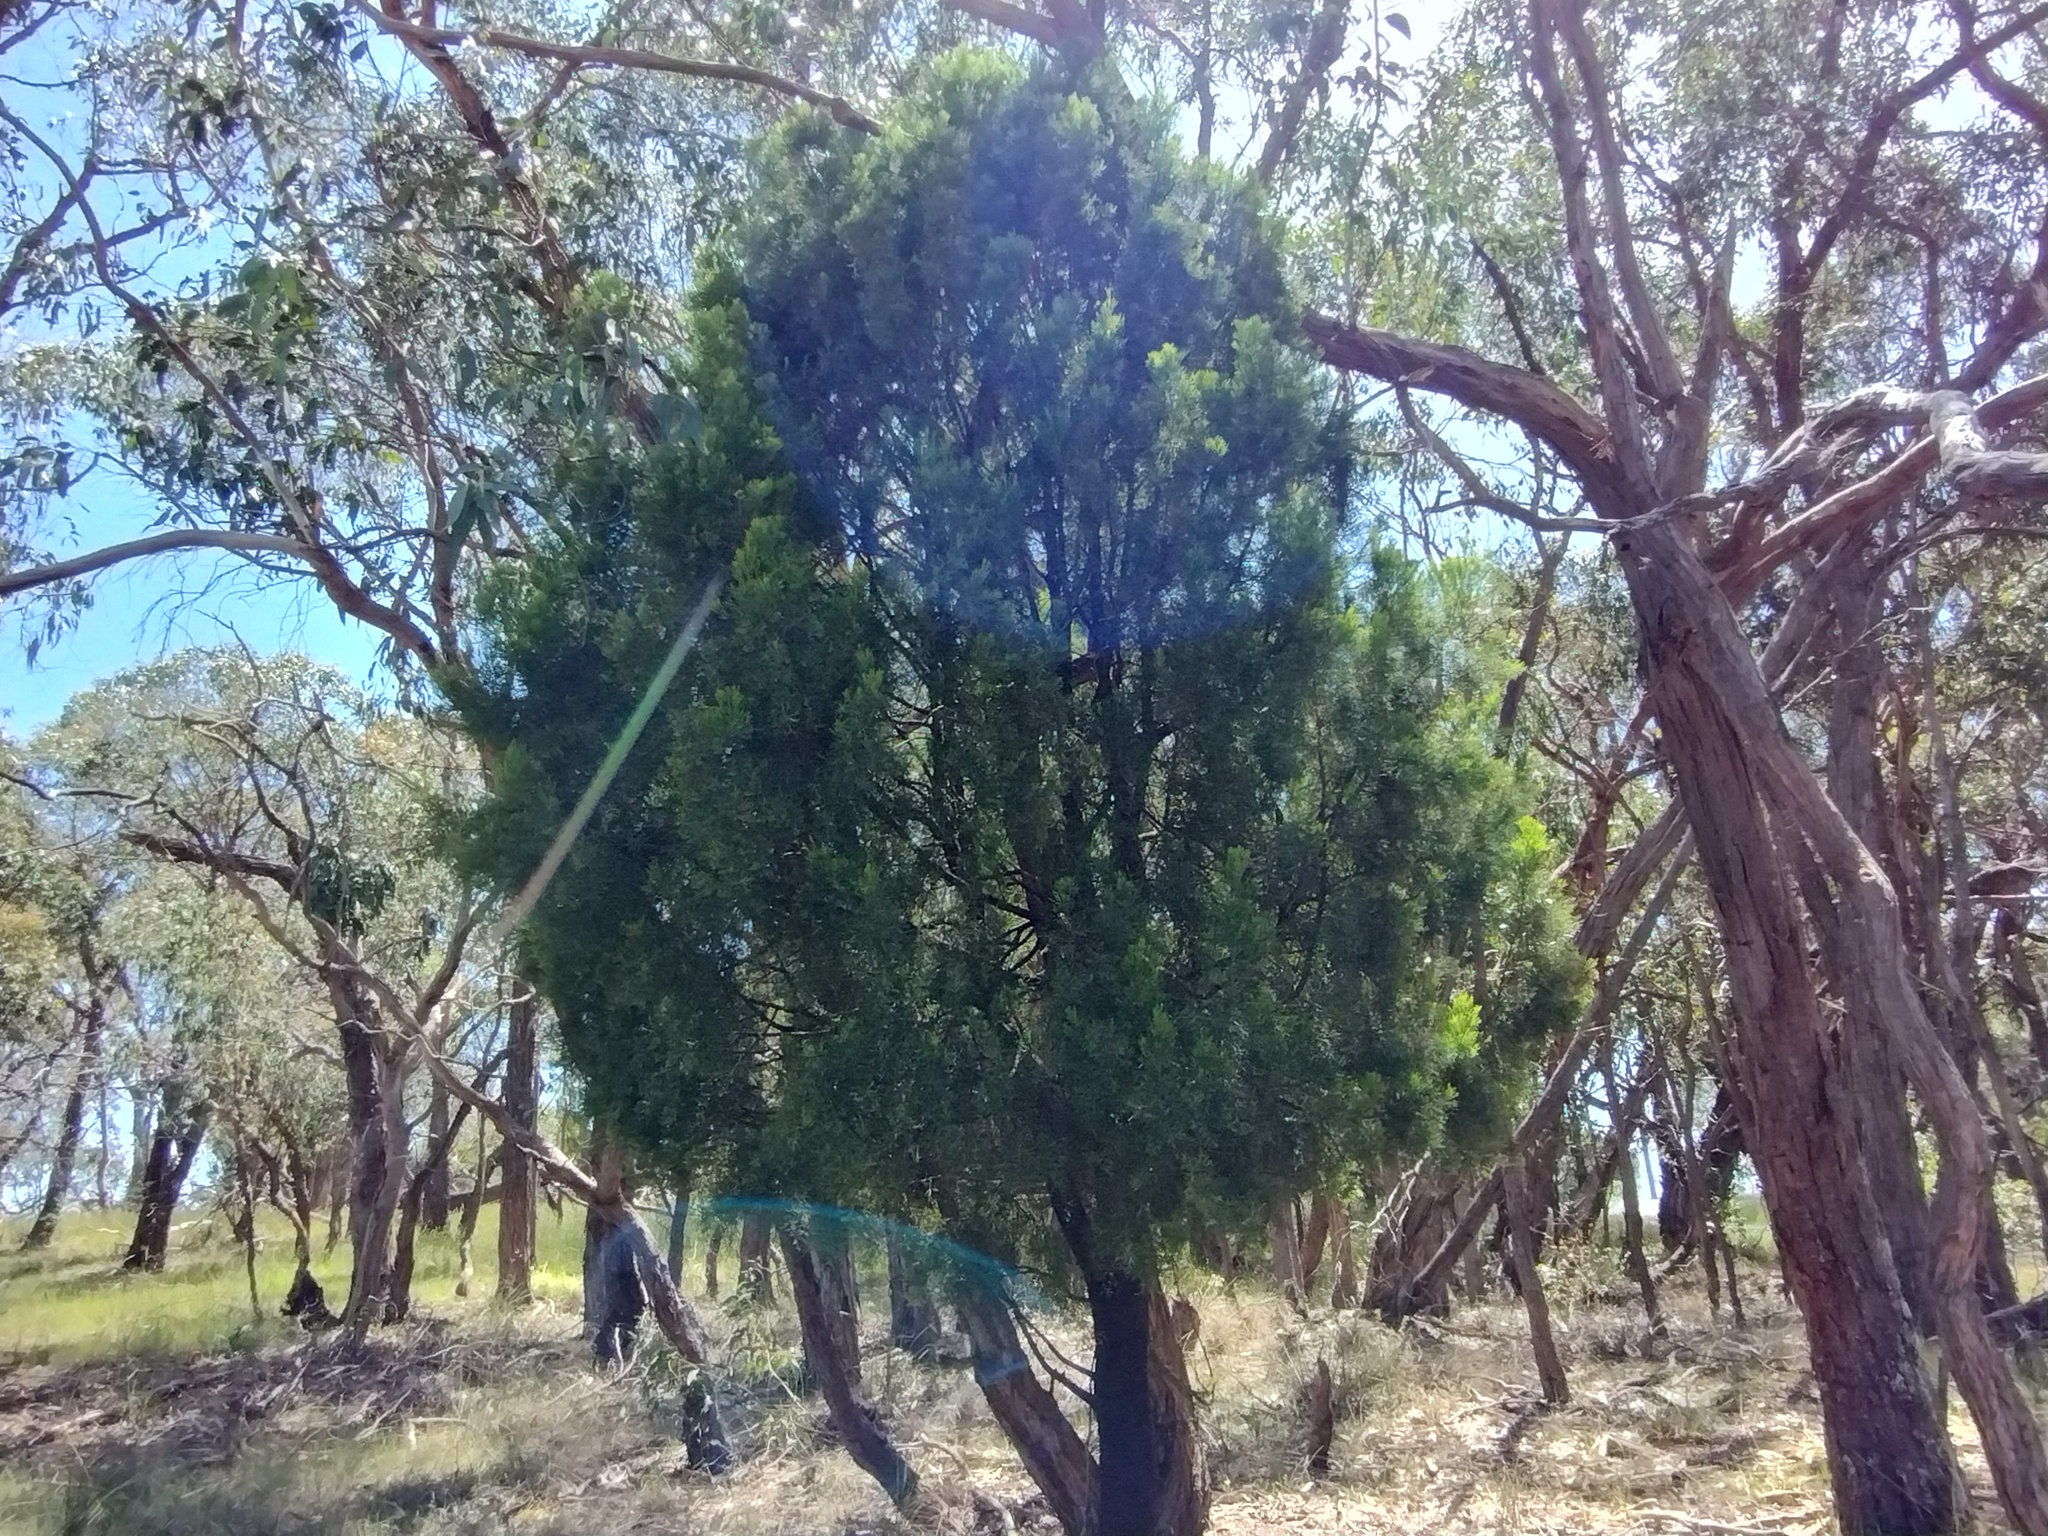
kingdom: Plantae
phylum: Tracheophyta
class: Magnoliopsida
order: Santalales
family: Santalaceae
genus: Exocarpos
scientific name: Exocarpos cupressiformis
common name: Cherry ballart
